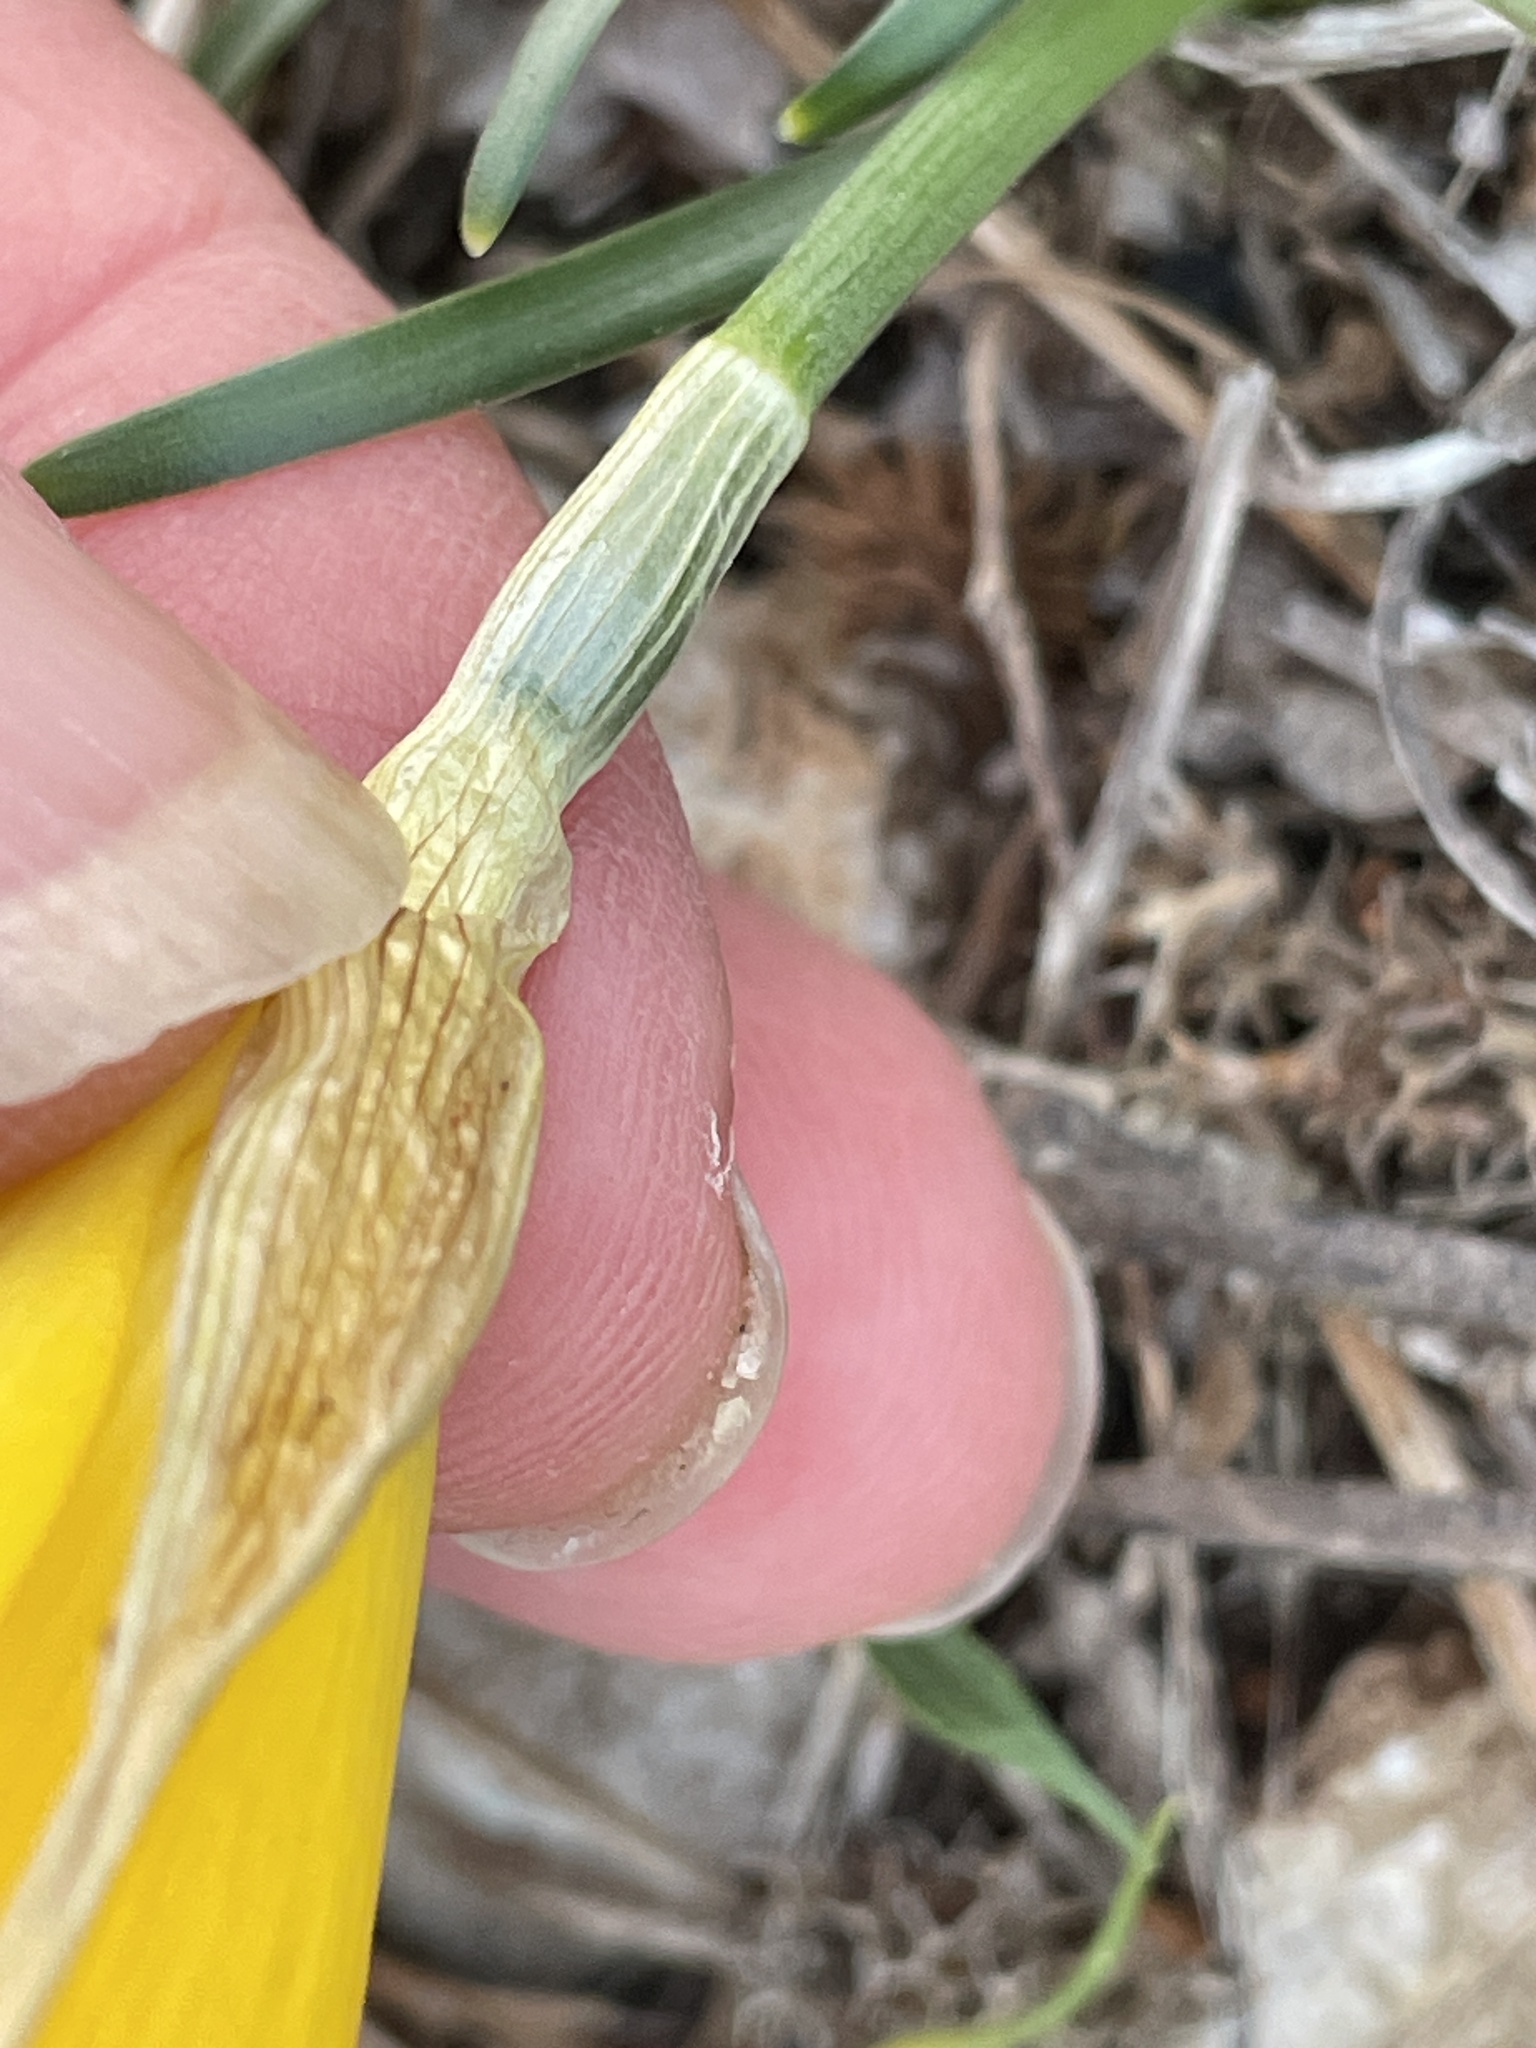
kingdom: Plantae
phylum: Tracheophyta
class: Liliopsida
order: Asparagales
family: Amaryllidaceae
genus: Sternbergia
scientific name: Sternbergia lutea
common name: Winter daffodil
